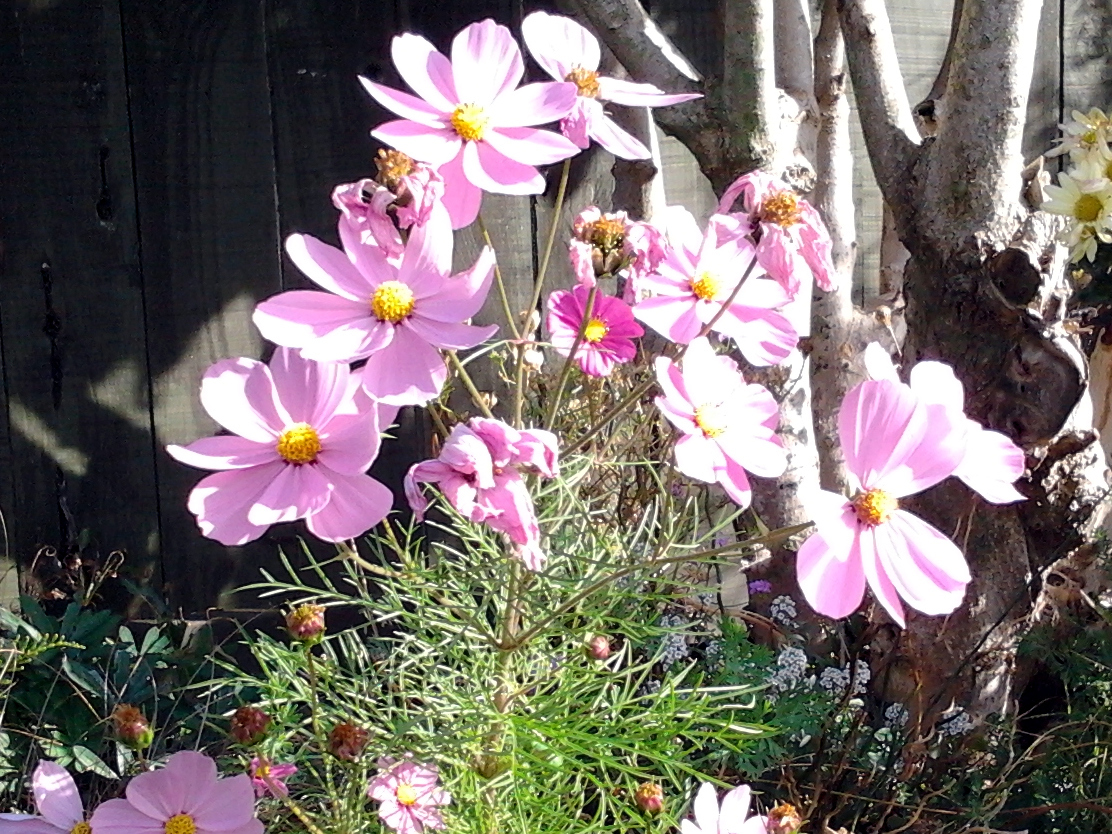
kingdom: Plantae
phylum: Tracheophyta
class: Magnoliopsida
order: Asterales
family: Asteraceae
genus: Cosmos
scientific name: Cosmos bipinnatus
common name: Garden cosmos
